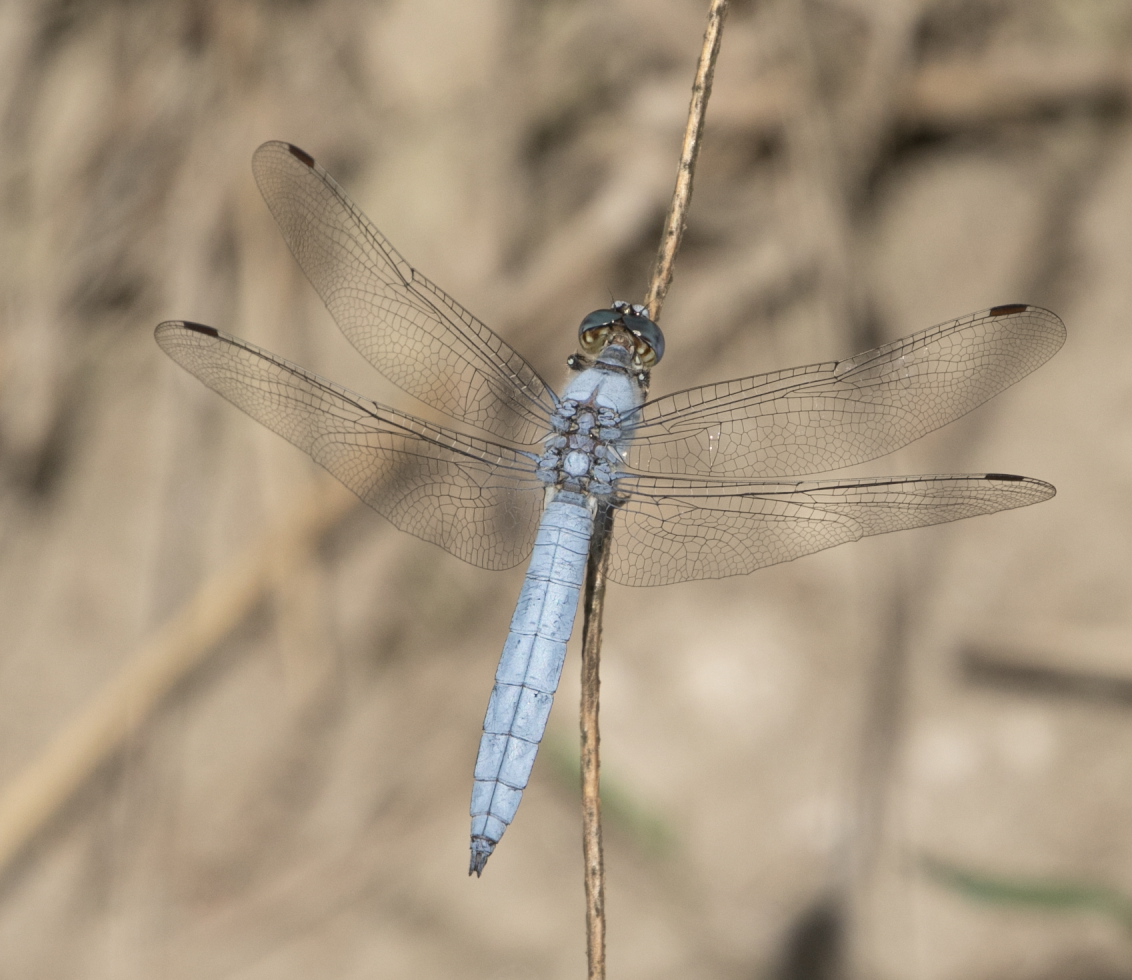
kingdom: Animalia
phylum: Arthropoda
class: Insecta
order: Odonata
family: Libellulidae
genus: Orthetrum
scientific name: Orthetrum brunneum
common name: Southern skimmer
